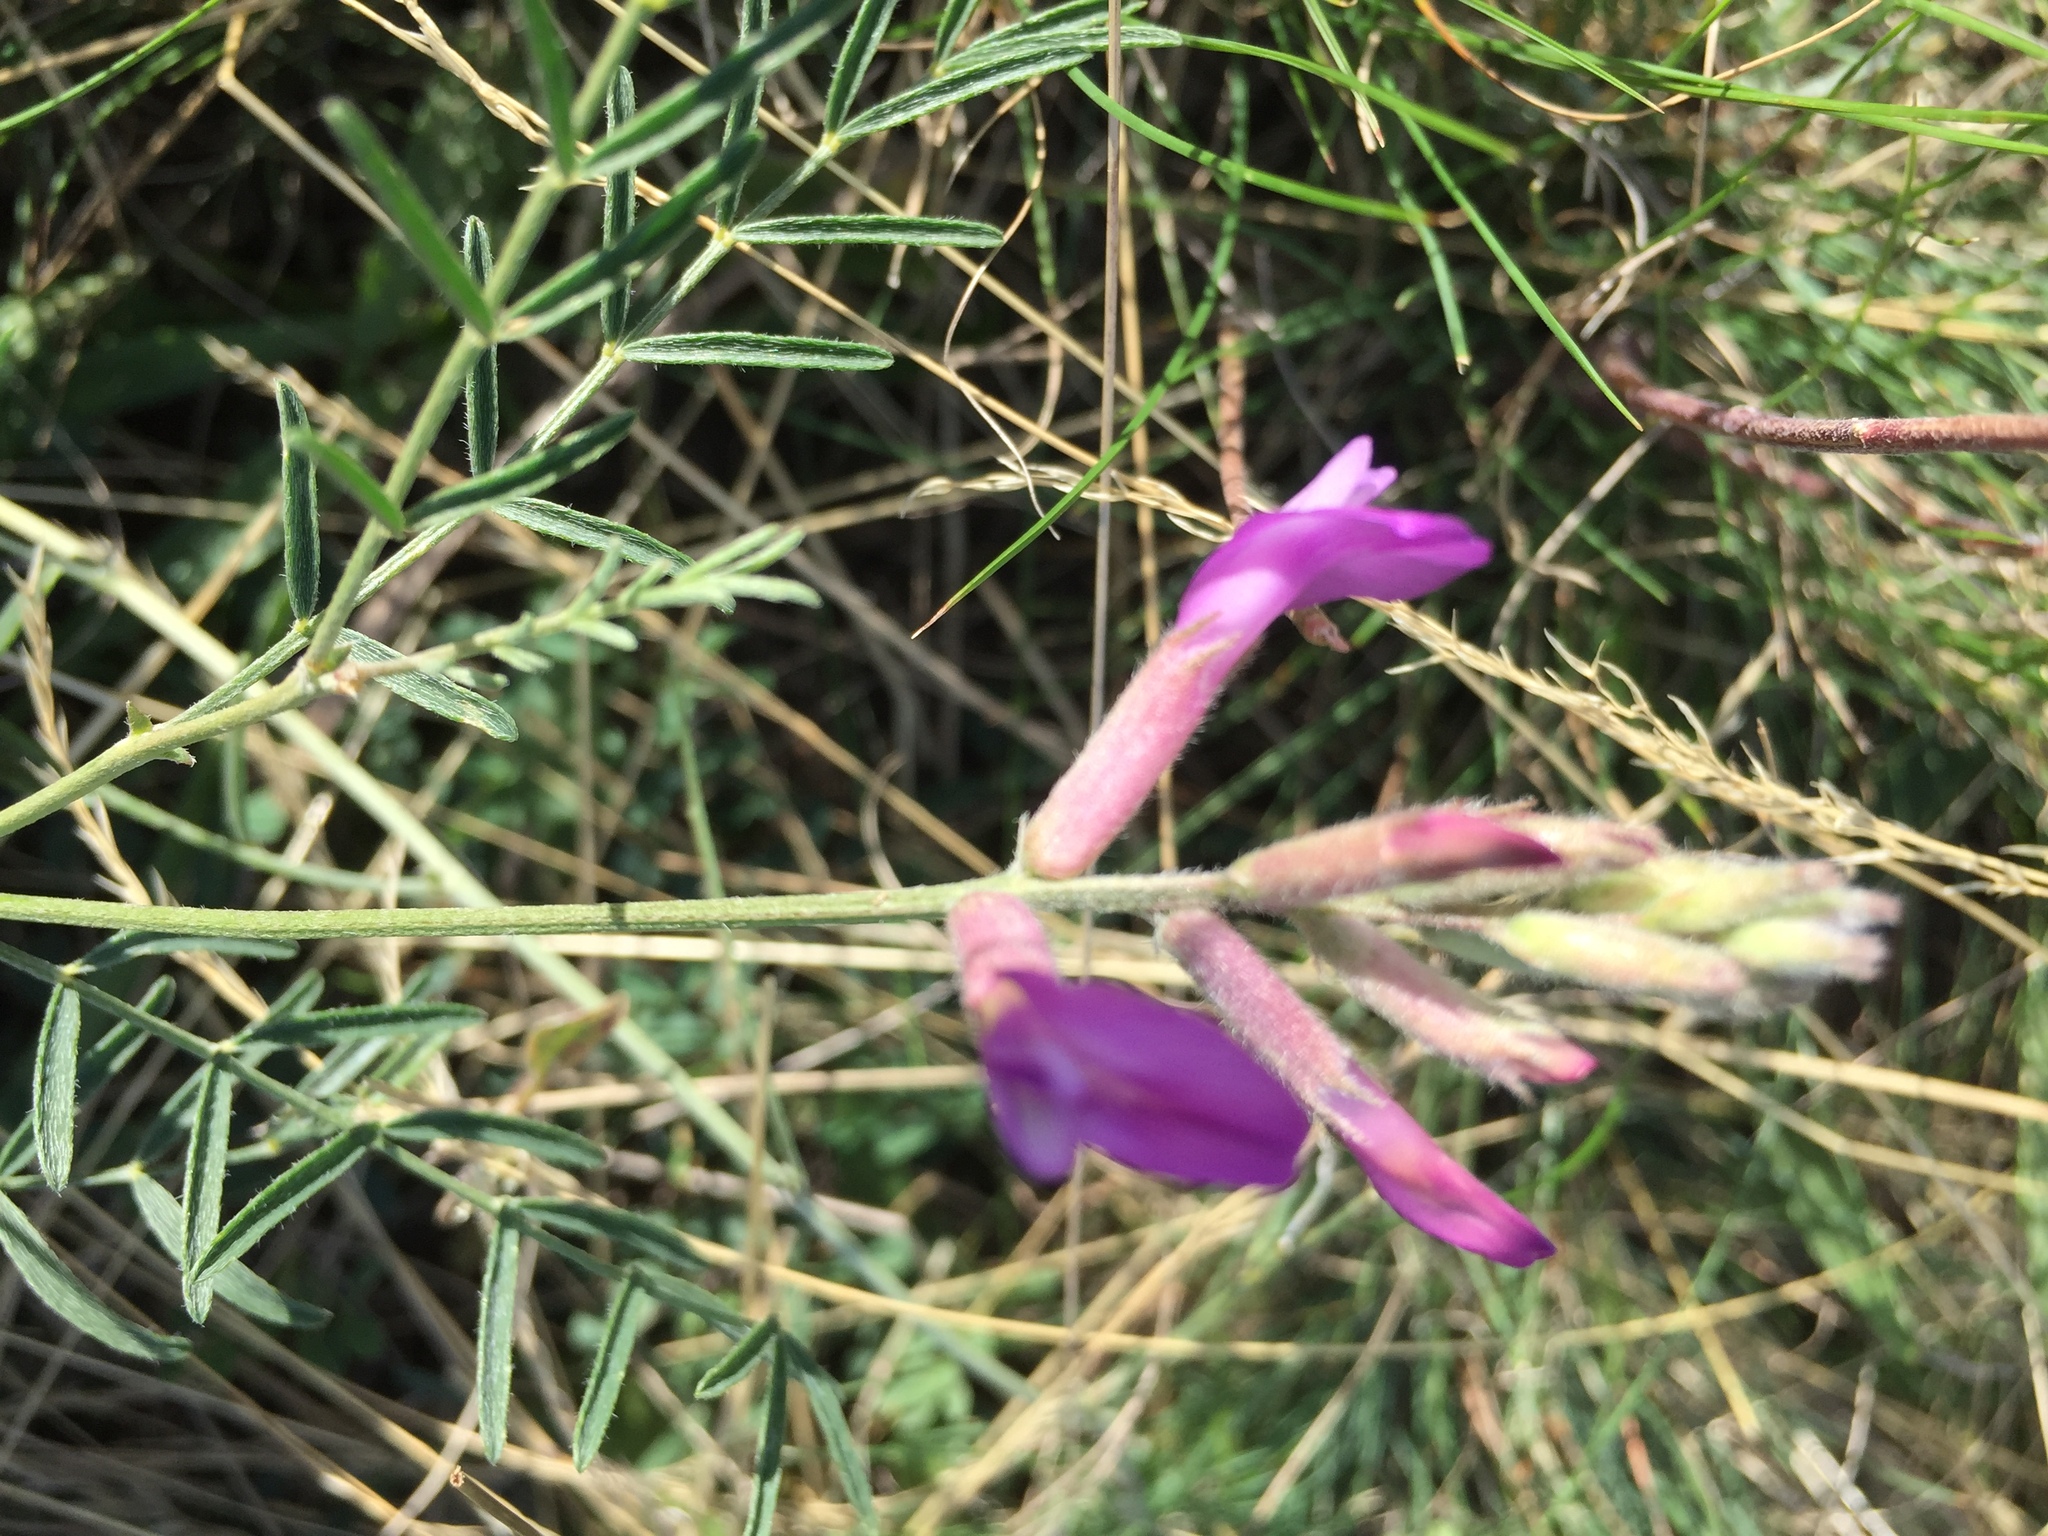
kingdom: Plantae
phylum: Tracheophyta
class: Magnoliopsida
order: Fabales
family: Fabaceae
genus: Astragalus
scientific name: Astragalus varius
